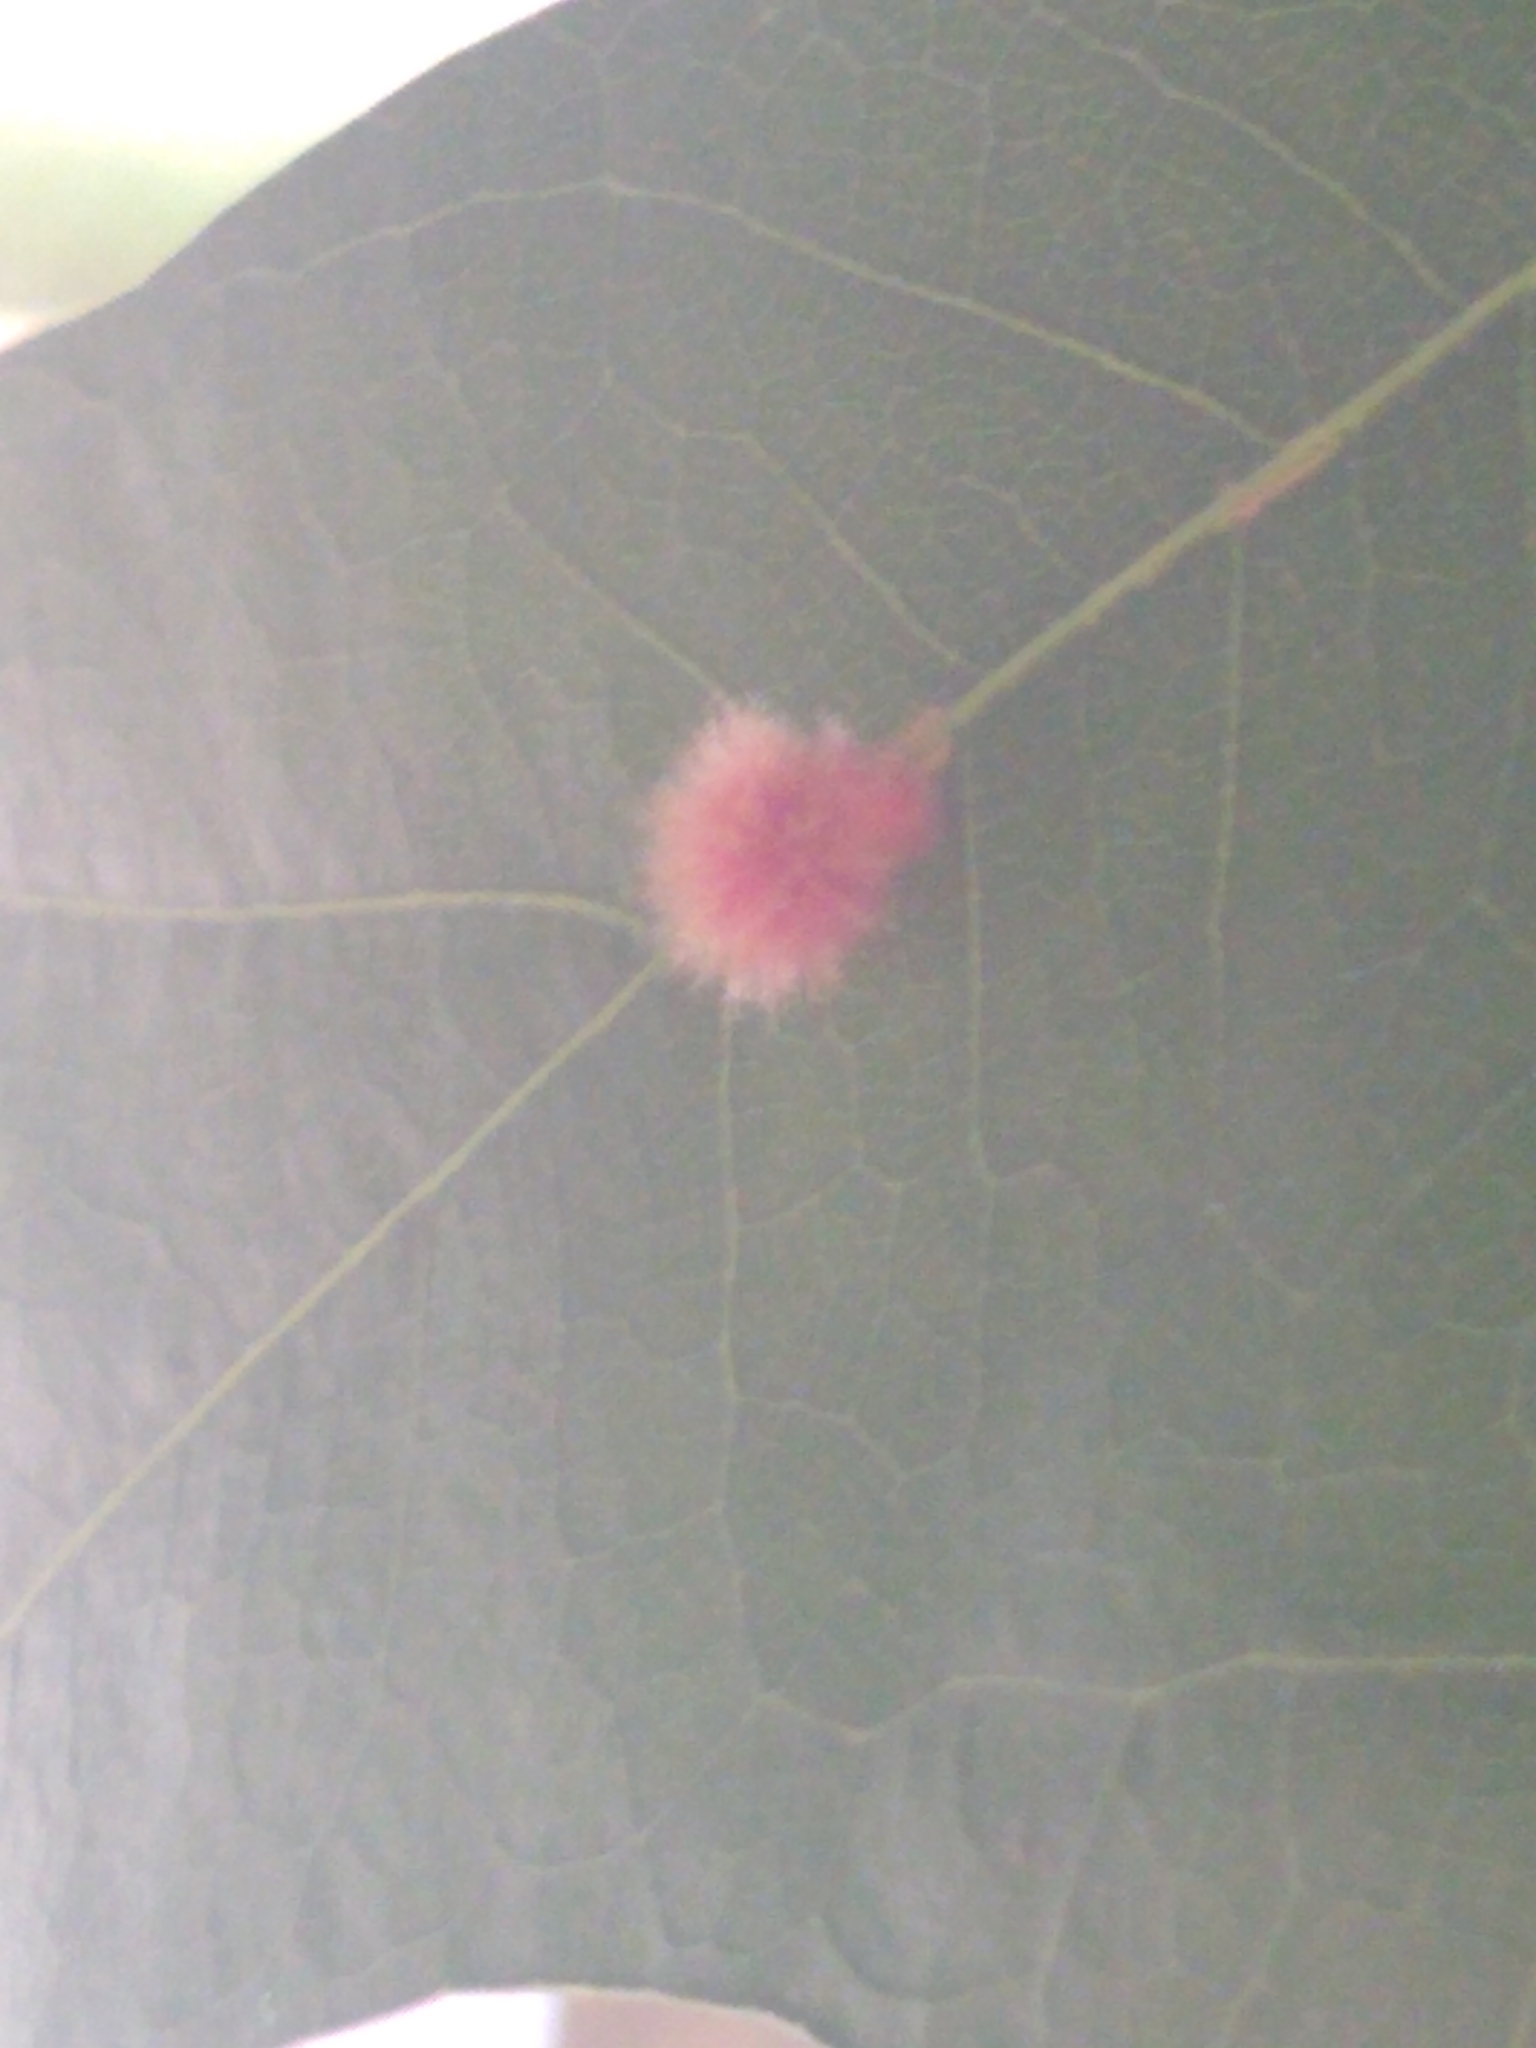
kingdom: Animalia
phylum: Arthropoda
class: Insecta
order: Hymenoptera
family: Cynipidae
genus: Callirhytis
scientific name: Callirhytis
